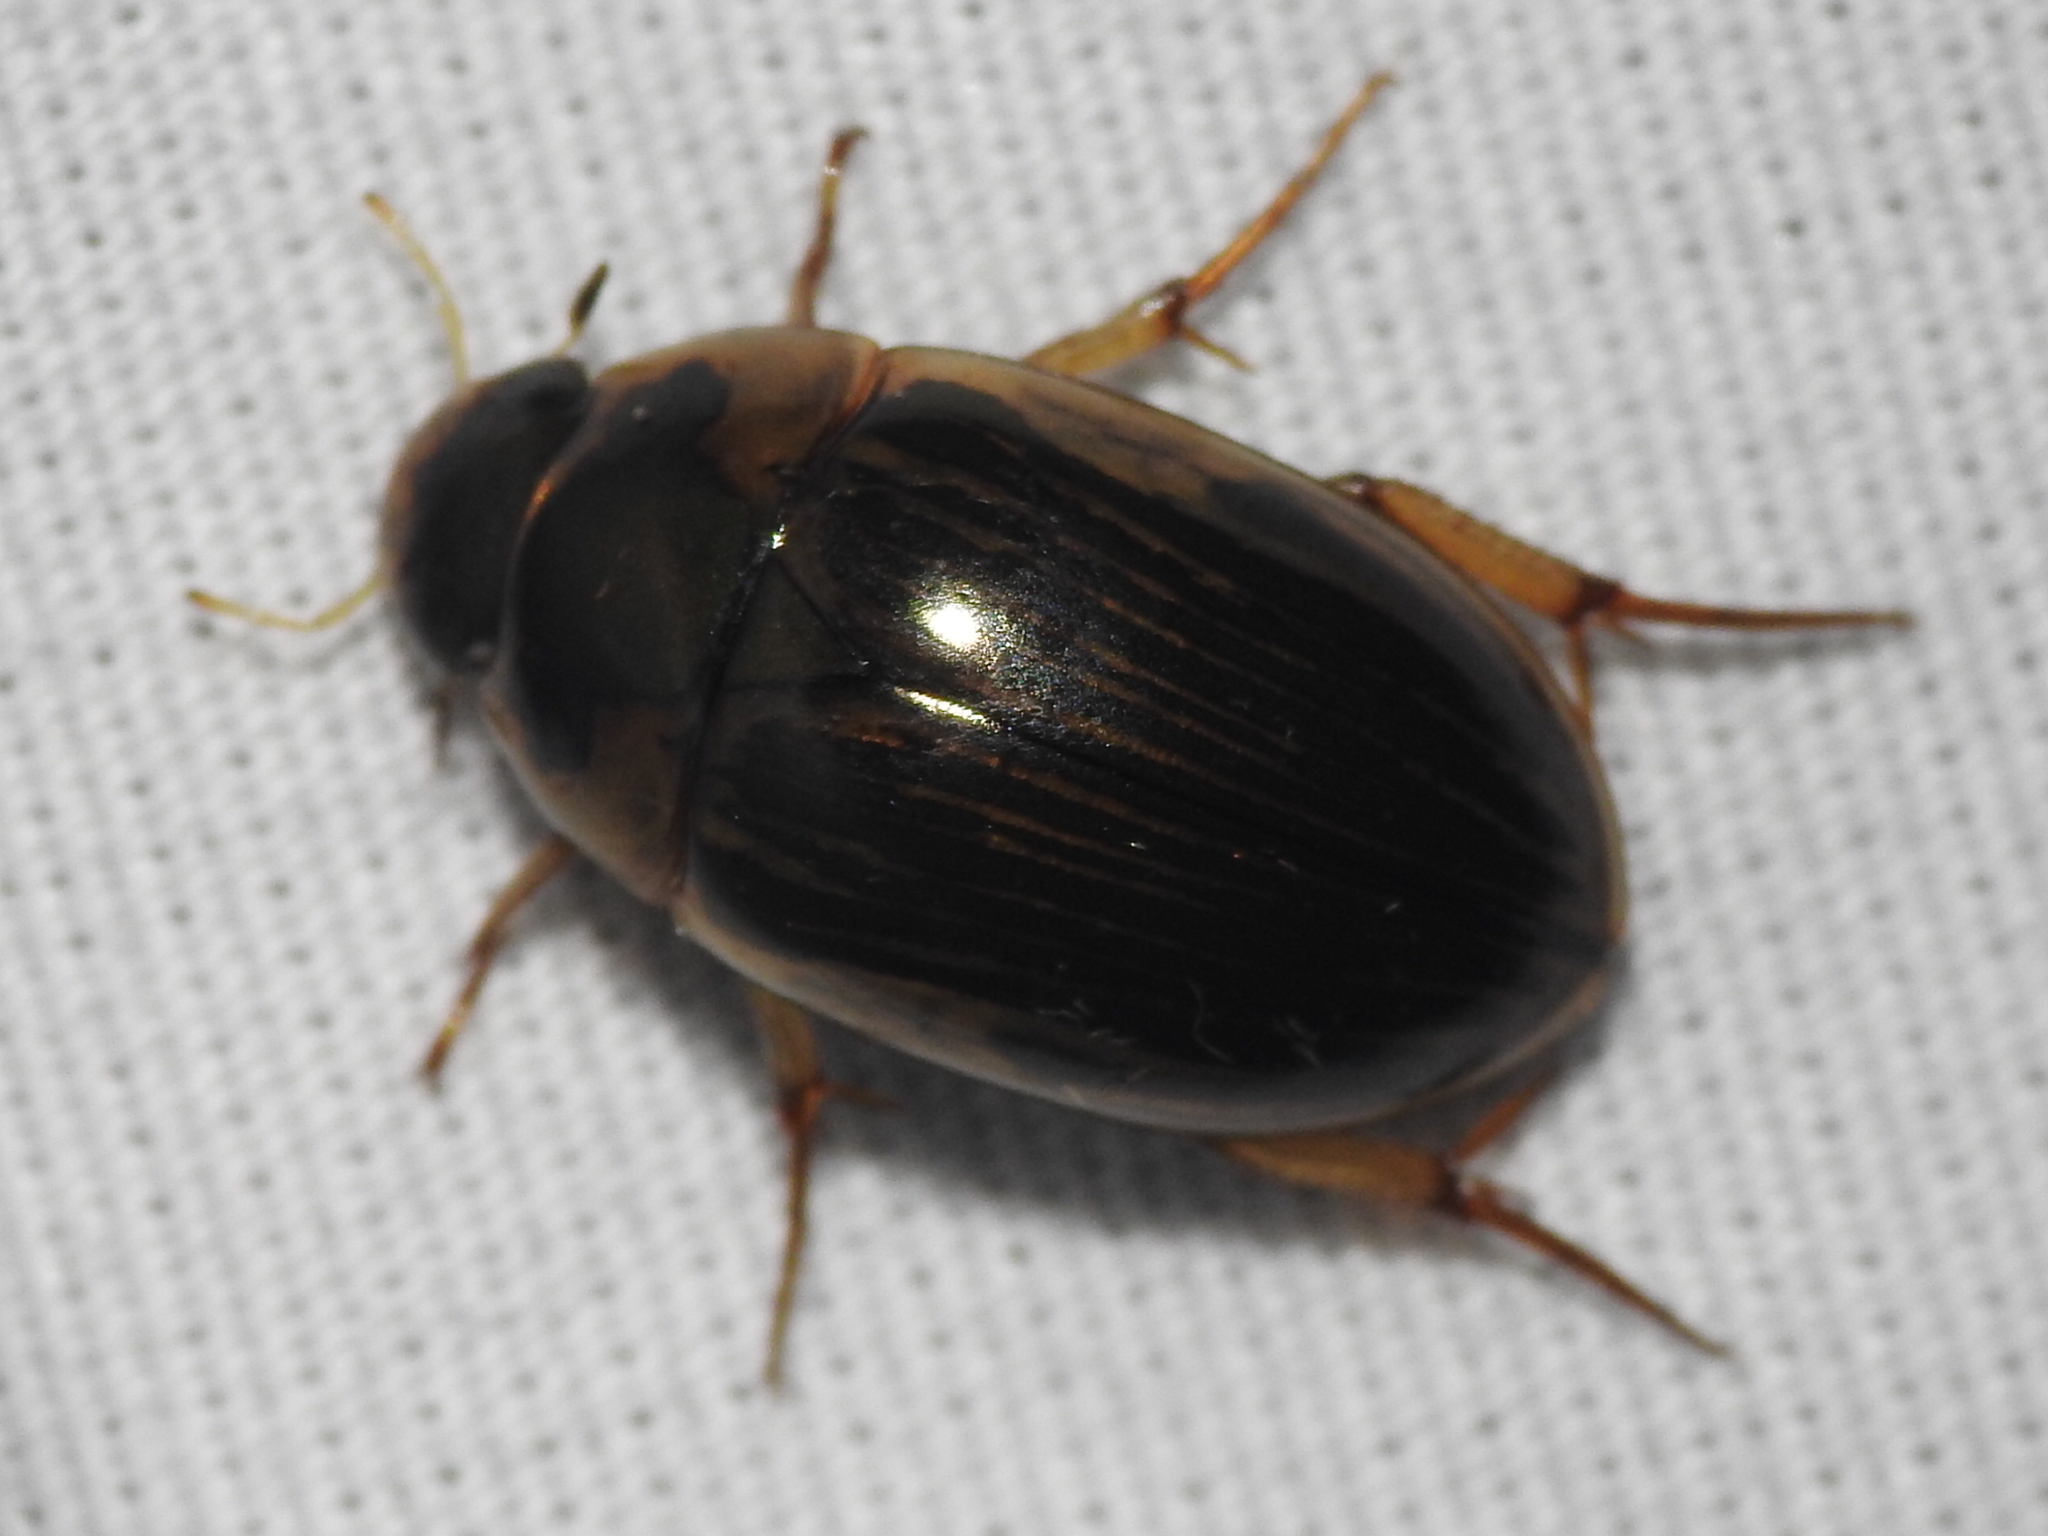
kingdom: Animalia
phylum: Arthropoda
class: Insecta
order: Coleoptera
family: Hydrophilidae
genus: Tropisternus
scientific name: Tropisternus collaris
